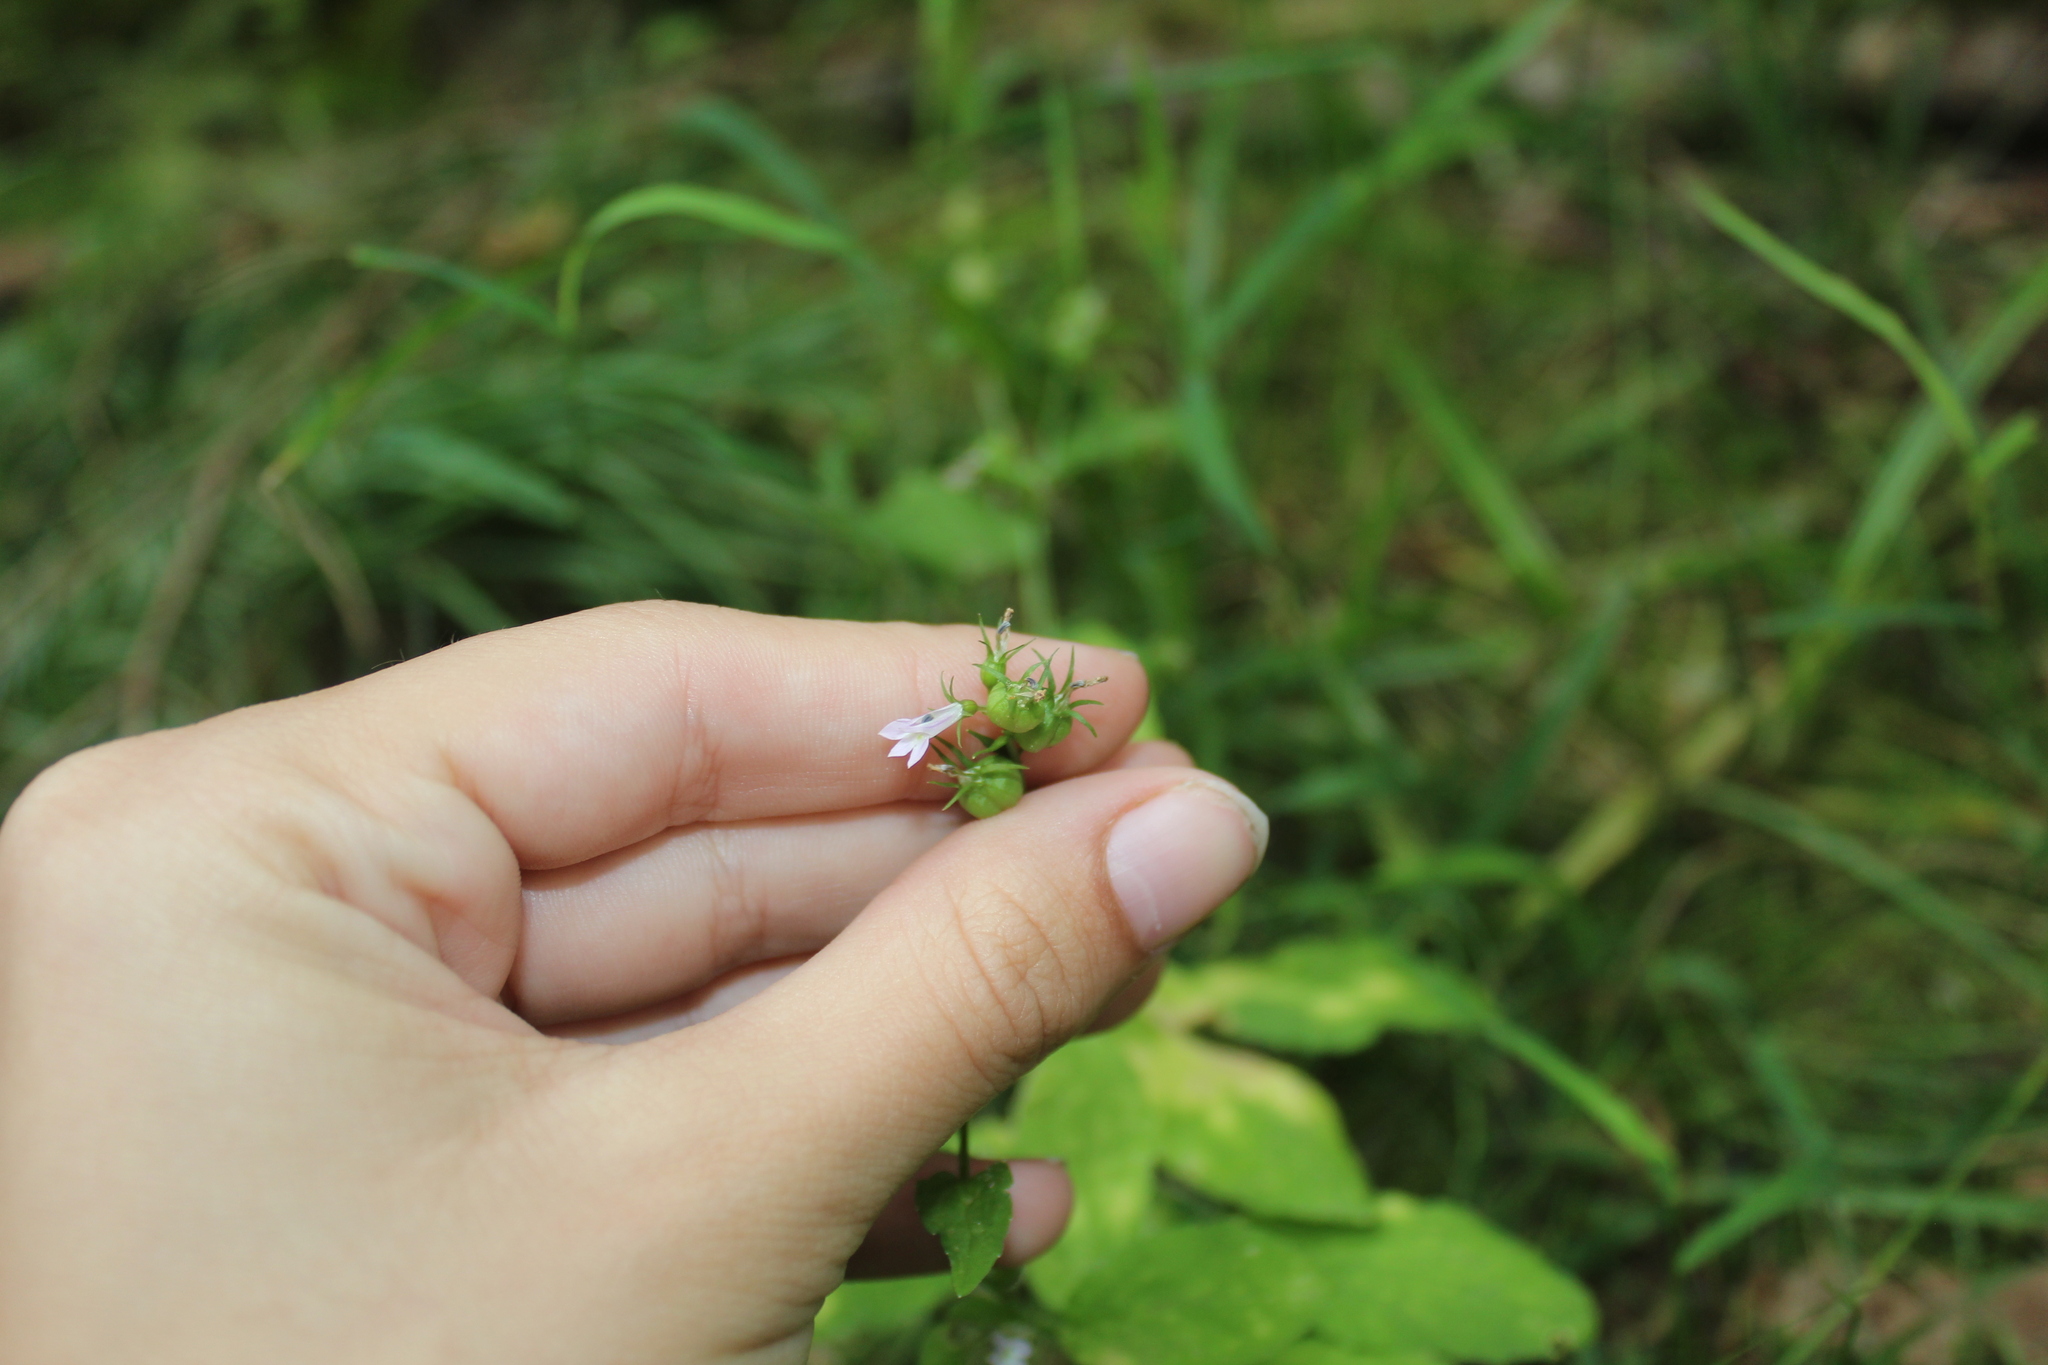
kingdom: Plantae
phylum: Tracheophyta
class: Magnoliopsida
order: Asterales
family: Campanulaceae
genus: Lobelia
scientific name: Lobelia inflata
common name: Indian tobacco
